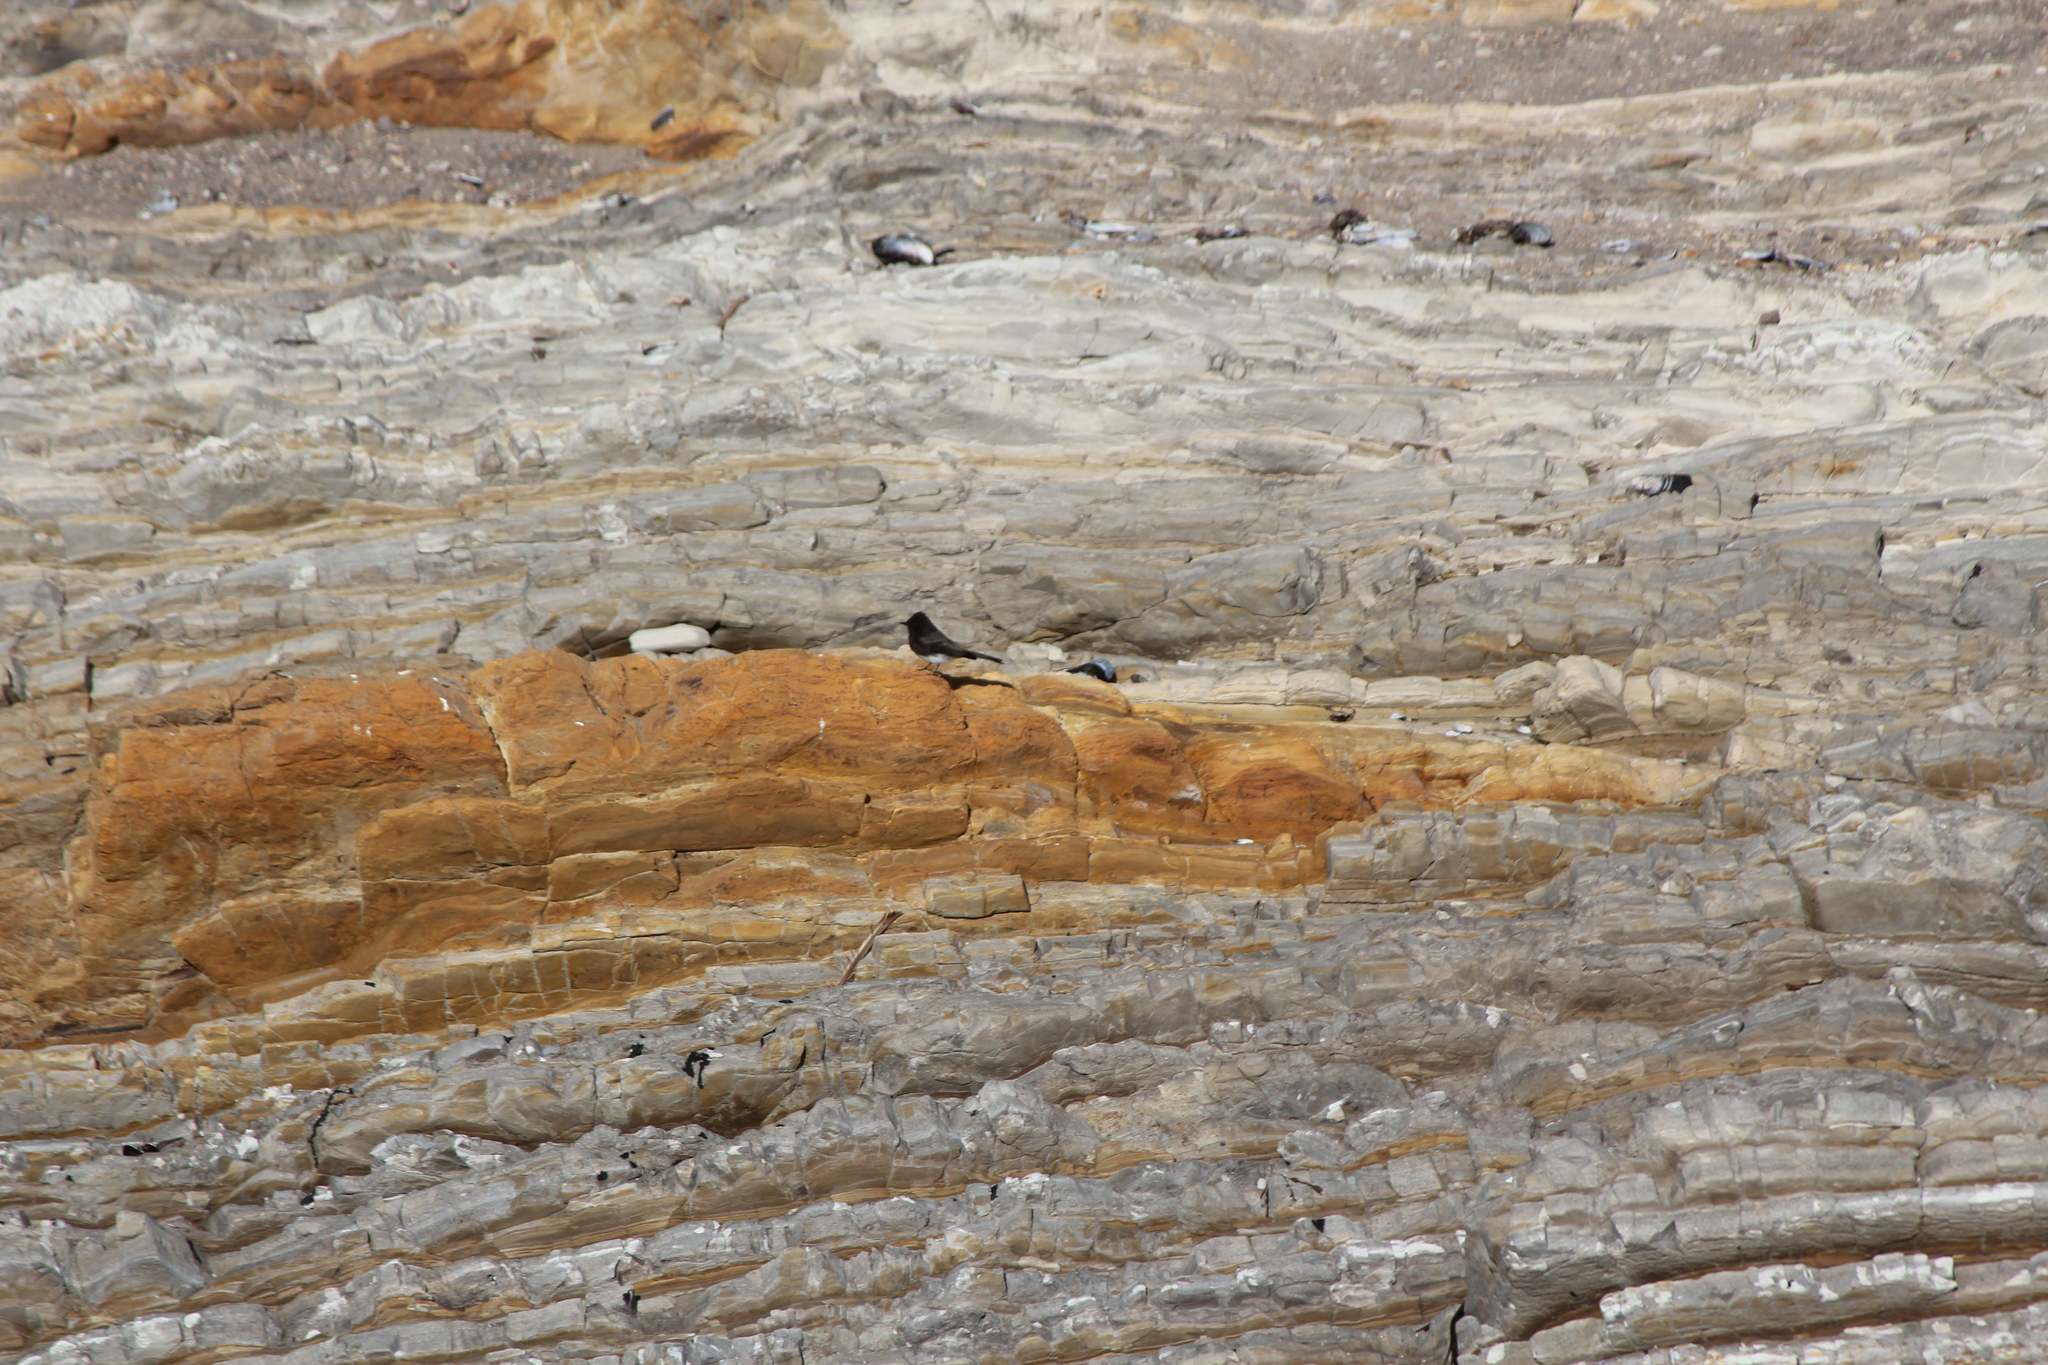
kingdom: Animalia
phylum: Chordata
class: Aves
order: Passeriformes
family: Tyrannidae
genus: Sayornis
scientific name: Sayornis nigricans
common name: Black phoebe
